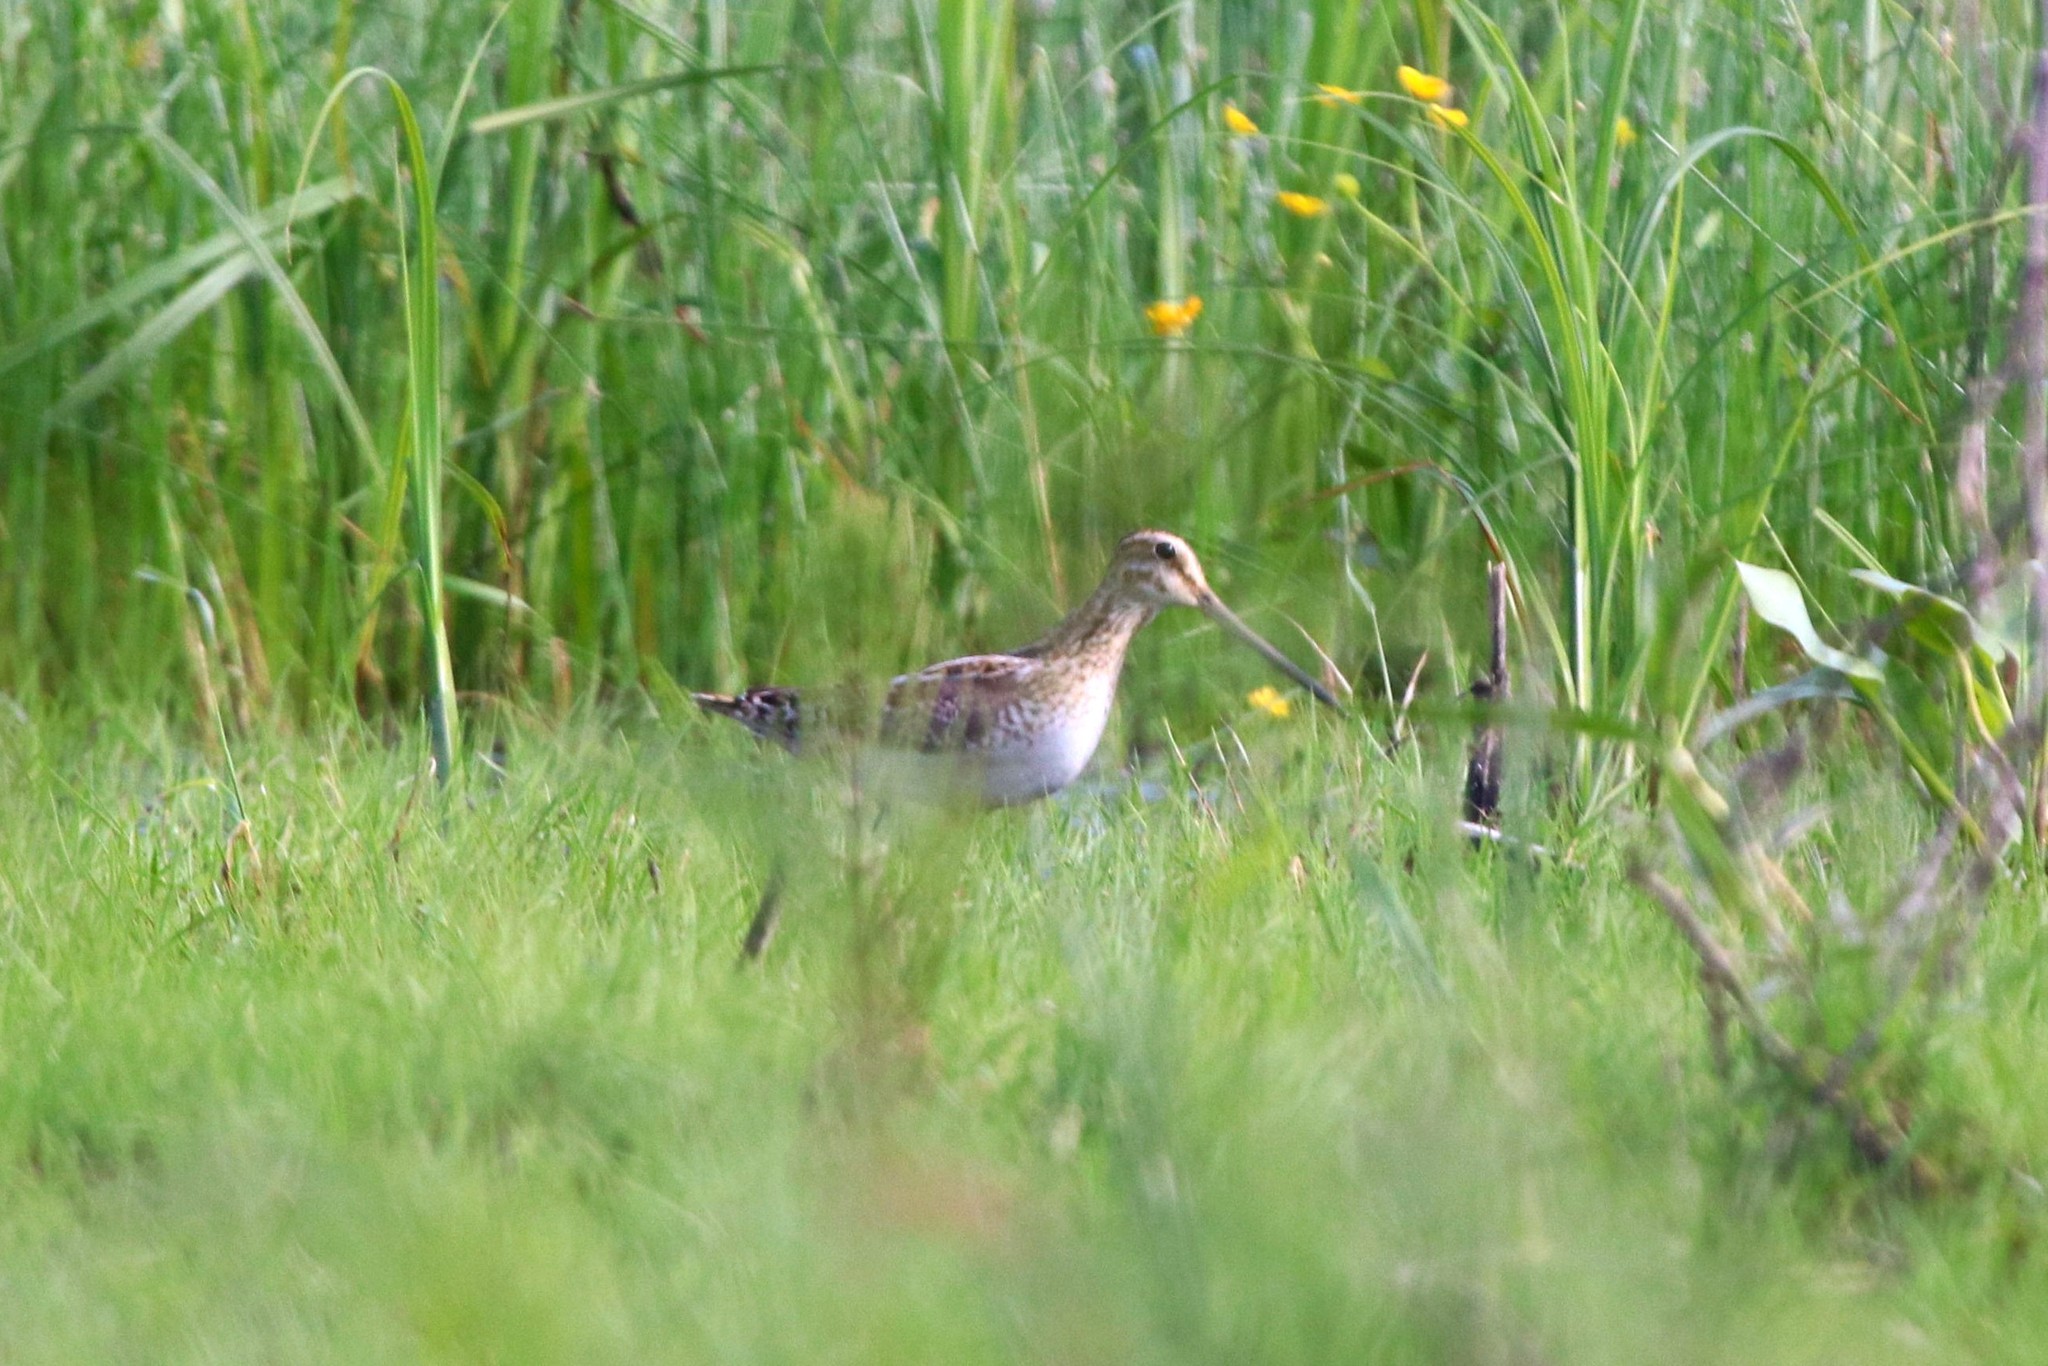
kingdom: Animalia
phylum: Chordata
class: Aves
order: Charadriiformes
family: Scolopacidae
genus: Gallinago
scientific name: Gallinago gallinago
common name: Common snipe
